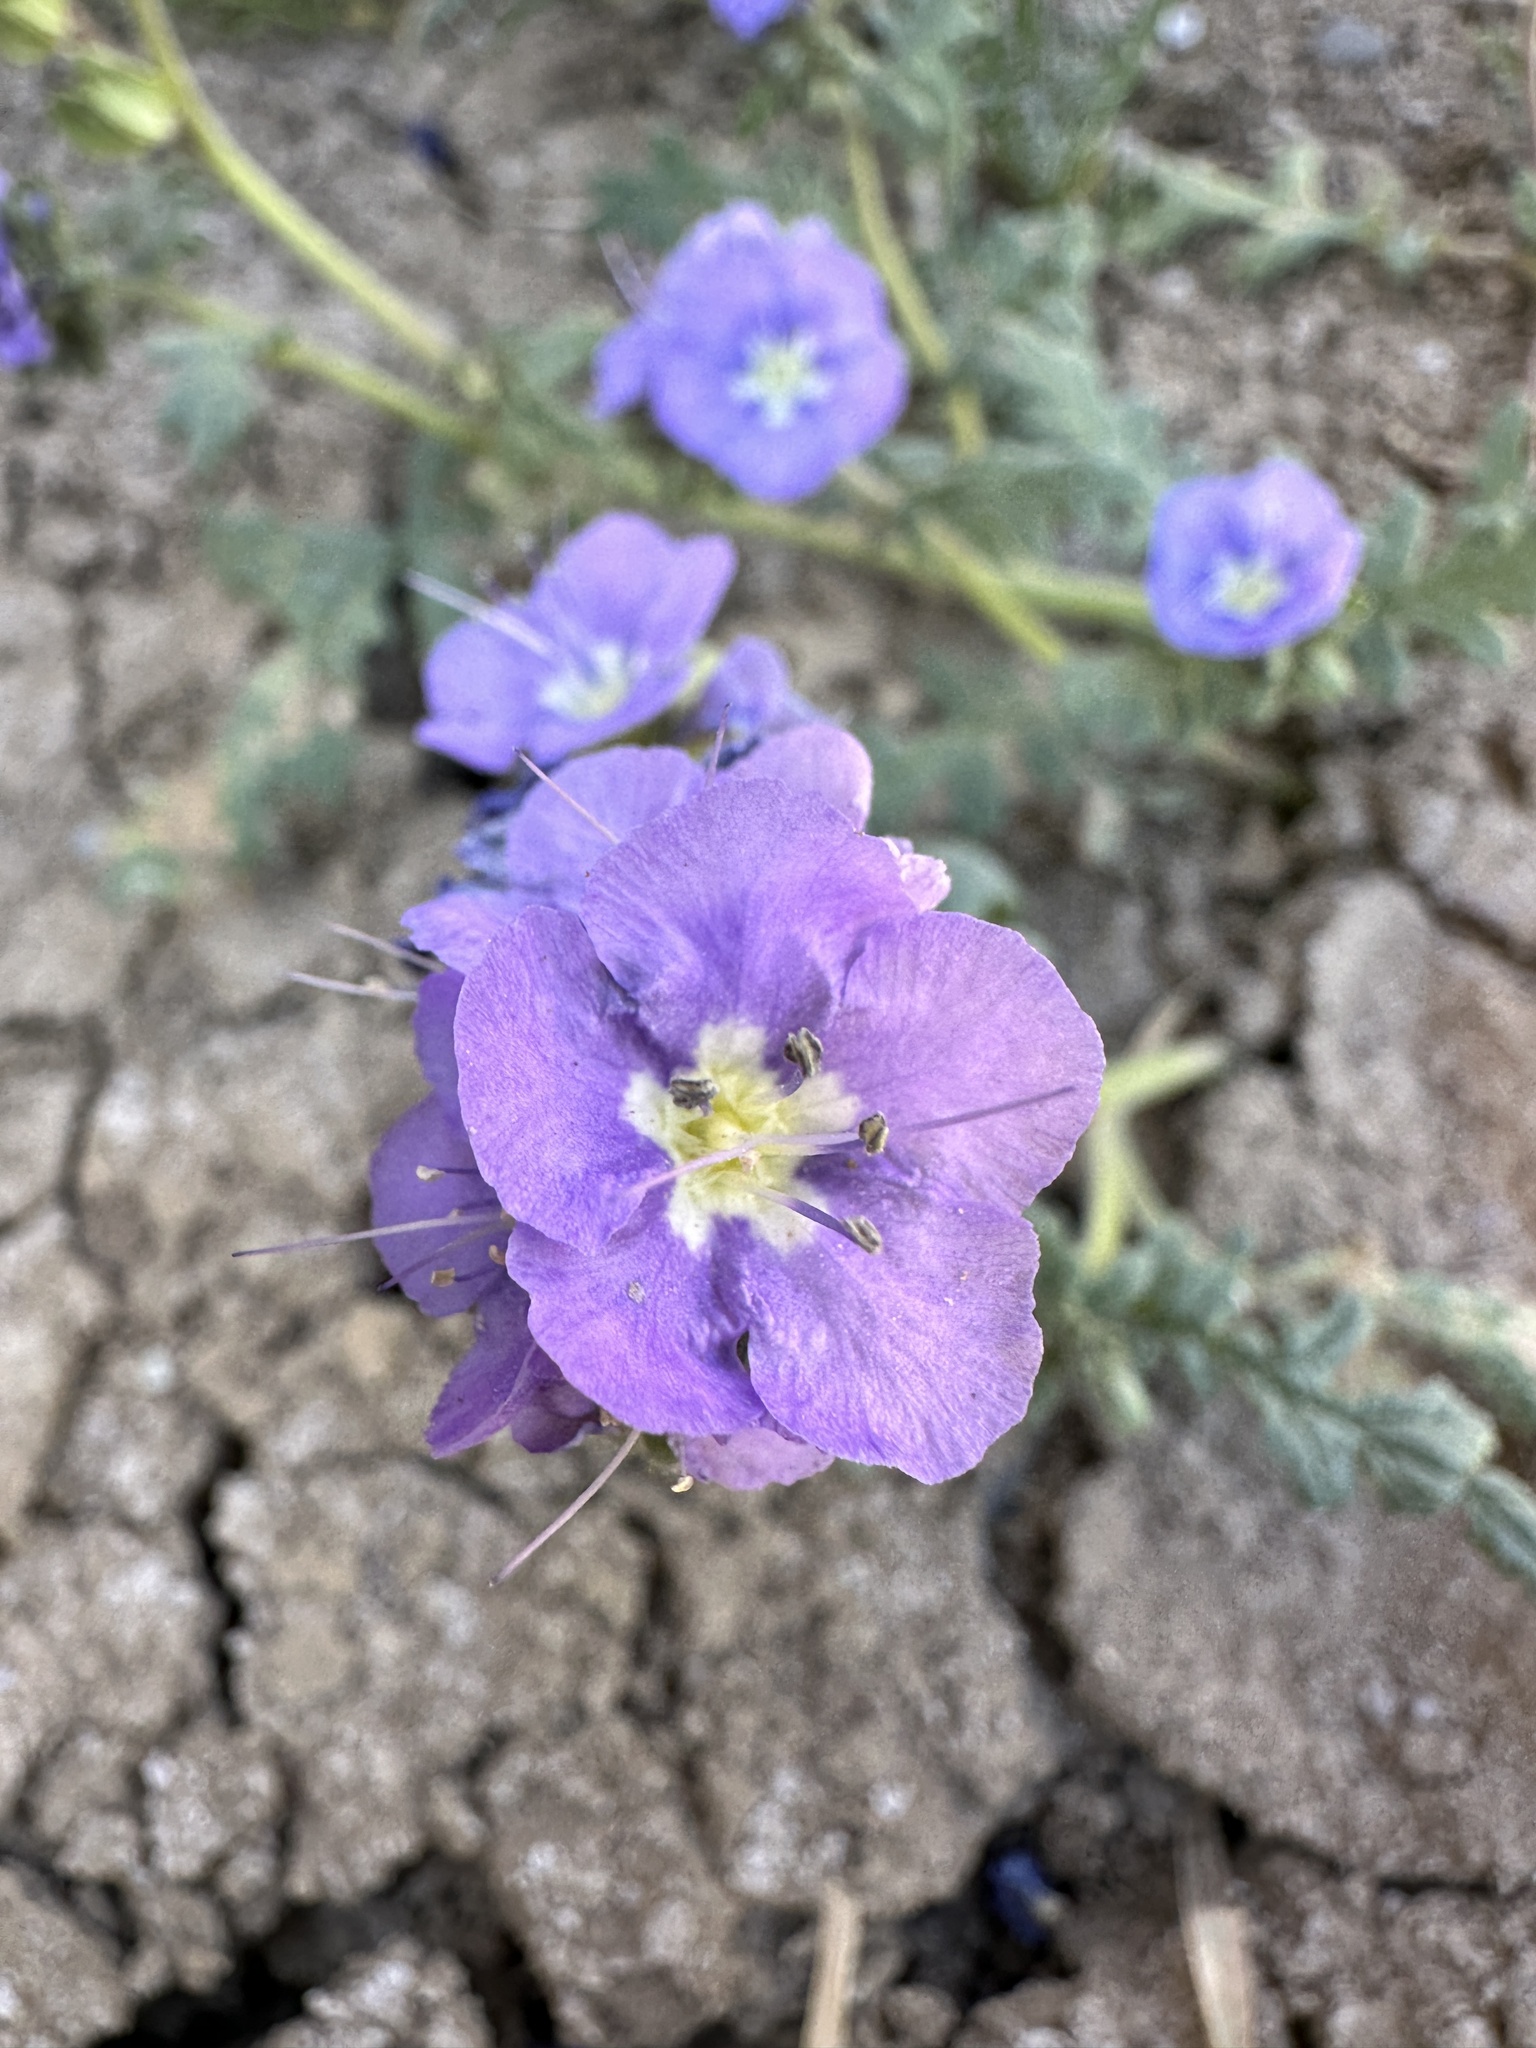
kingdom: Plantae
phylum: Tracheophyta
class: Magnoliopsida
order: Boraginales
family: Hydrophyllaceae
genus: Phacelia
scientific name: Phacelia ciliata
